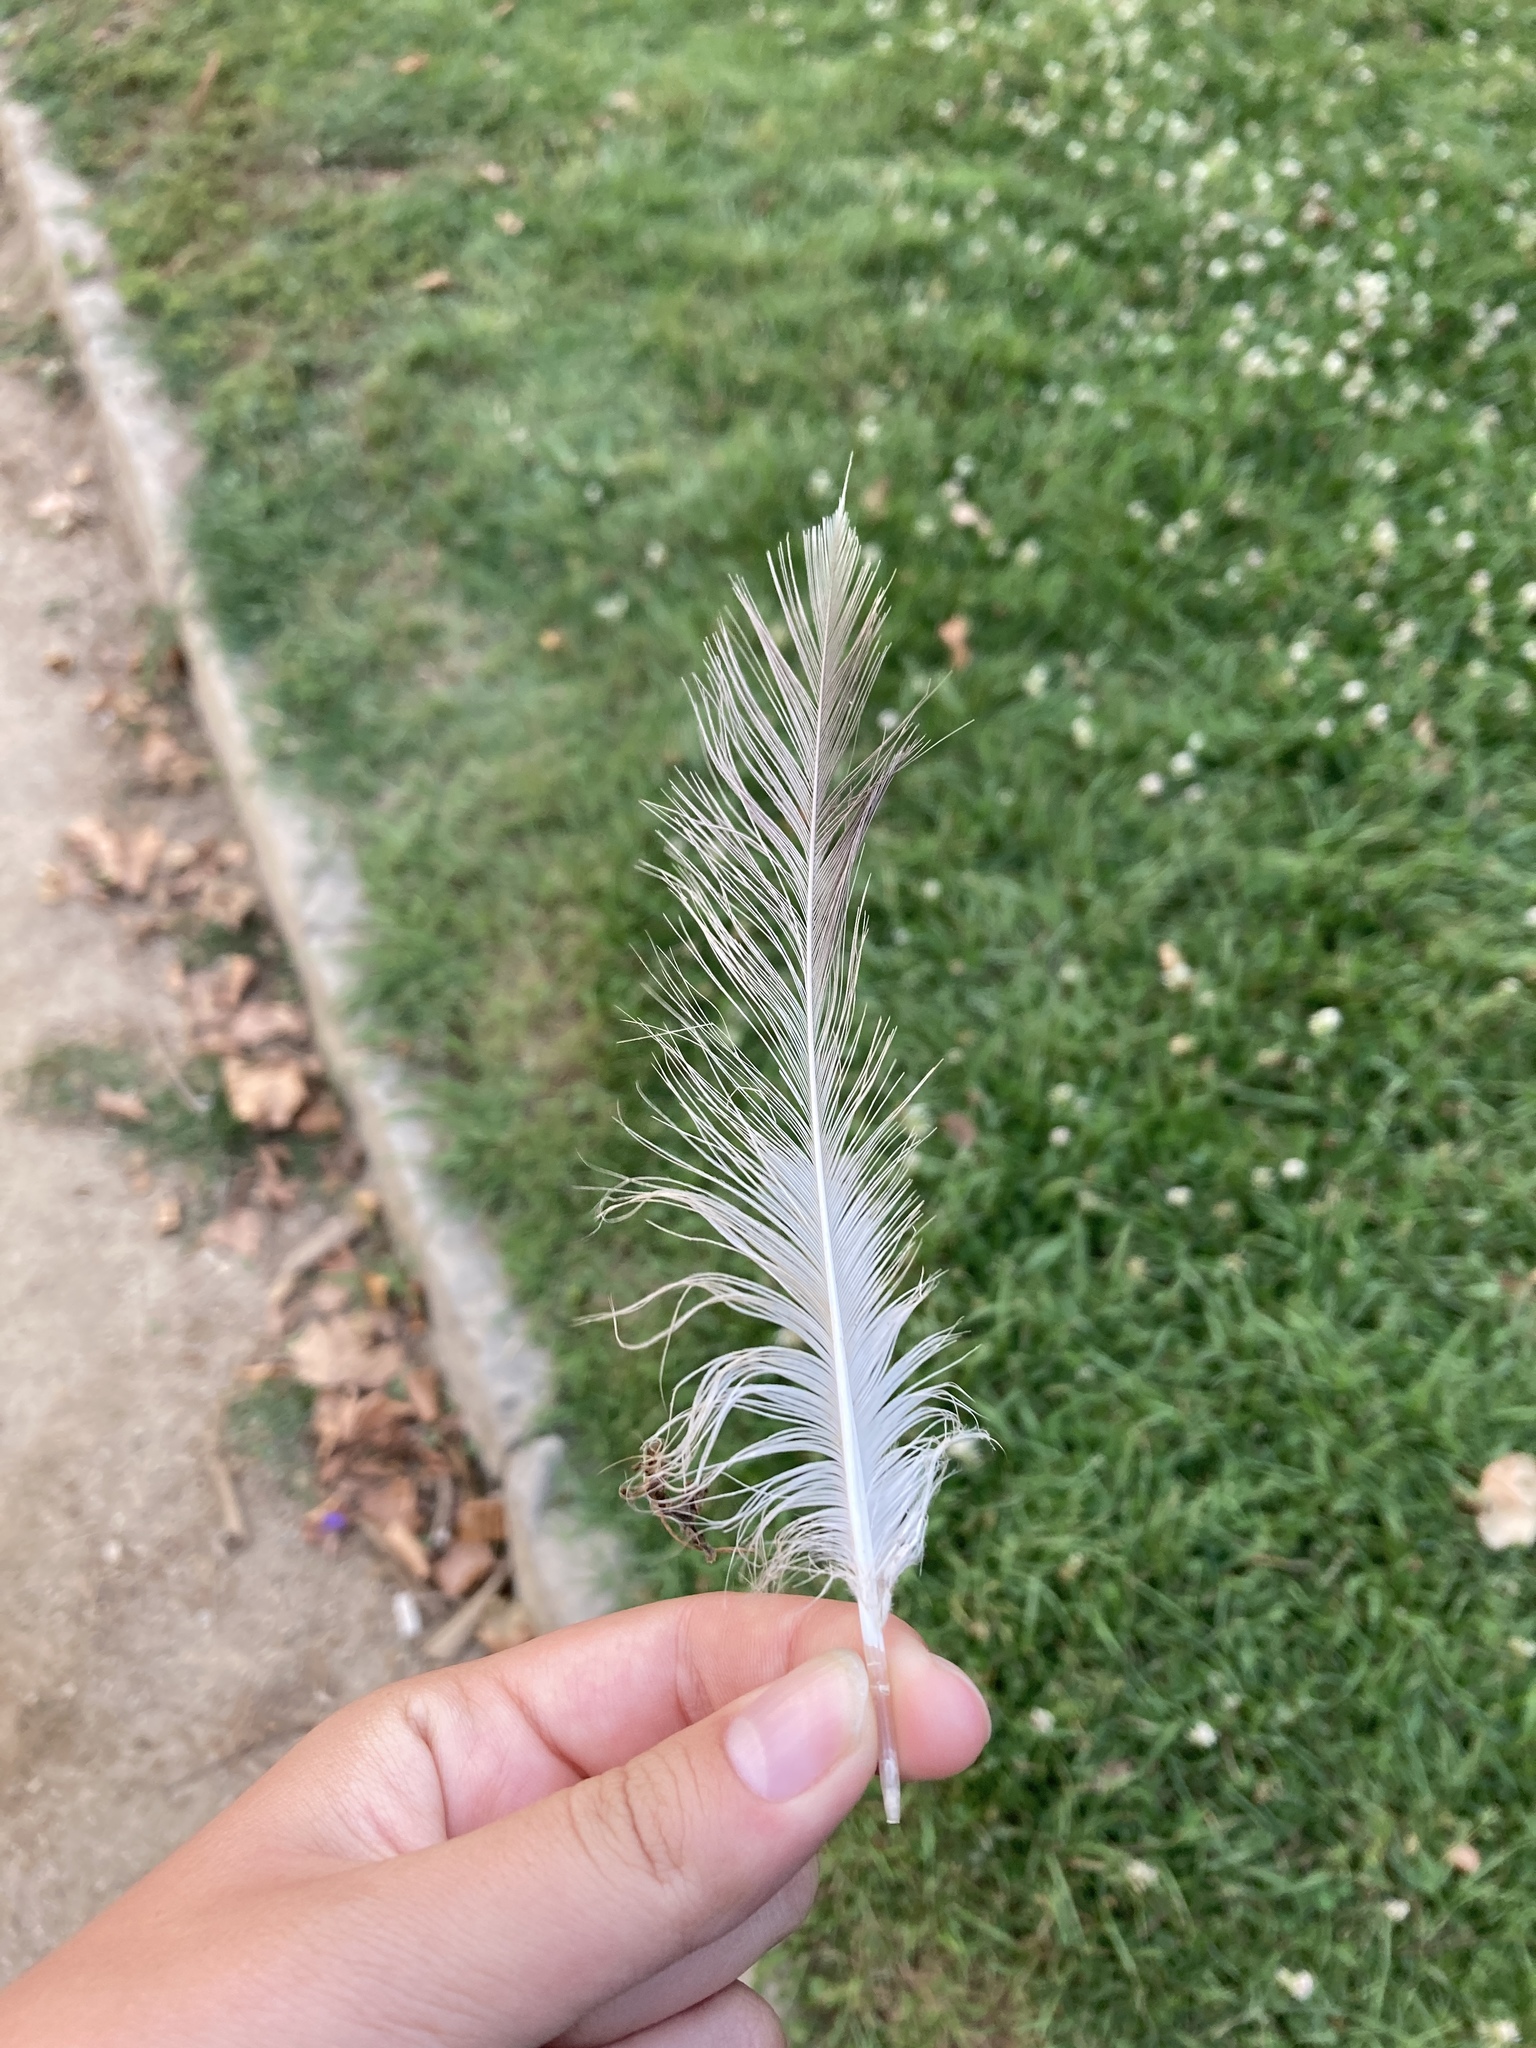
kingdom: Animalia
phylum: Chordata
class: Aves
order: Charadriiformes
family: Laridae
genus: Larus
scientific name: Larus michahellis
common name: Yellow-legged gull
